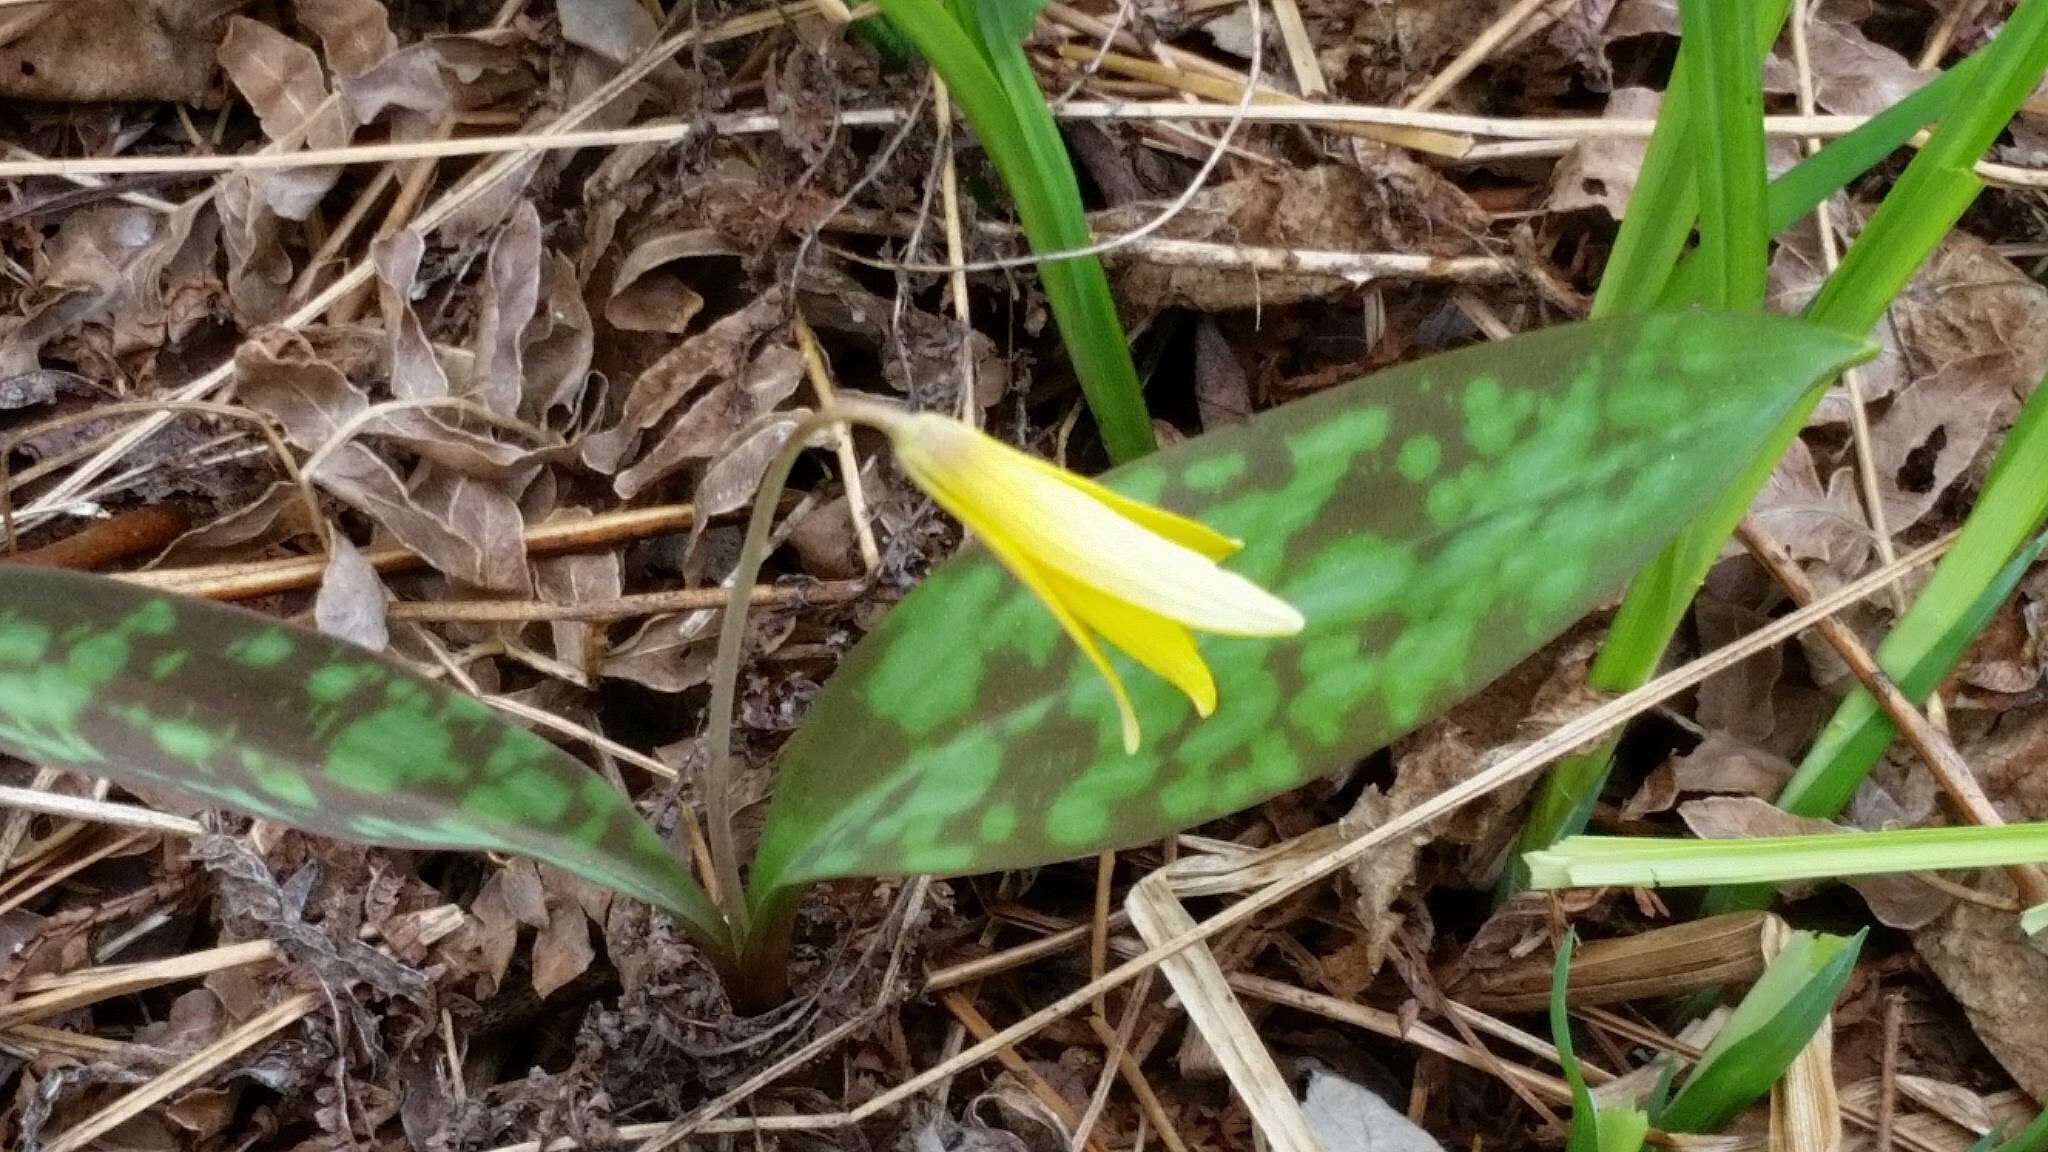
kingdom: Plantae
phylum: Tracheophyta
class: Liliopsida
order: Liliales
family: Liliaceae
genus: Erythronium
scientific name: Erythronium americanum
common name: Yellow adder's-tongue
